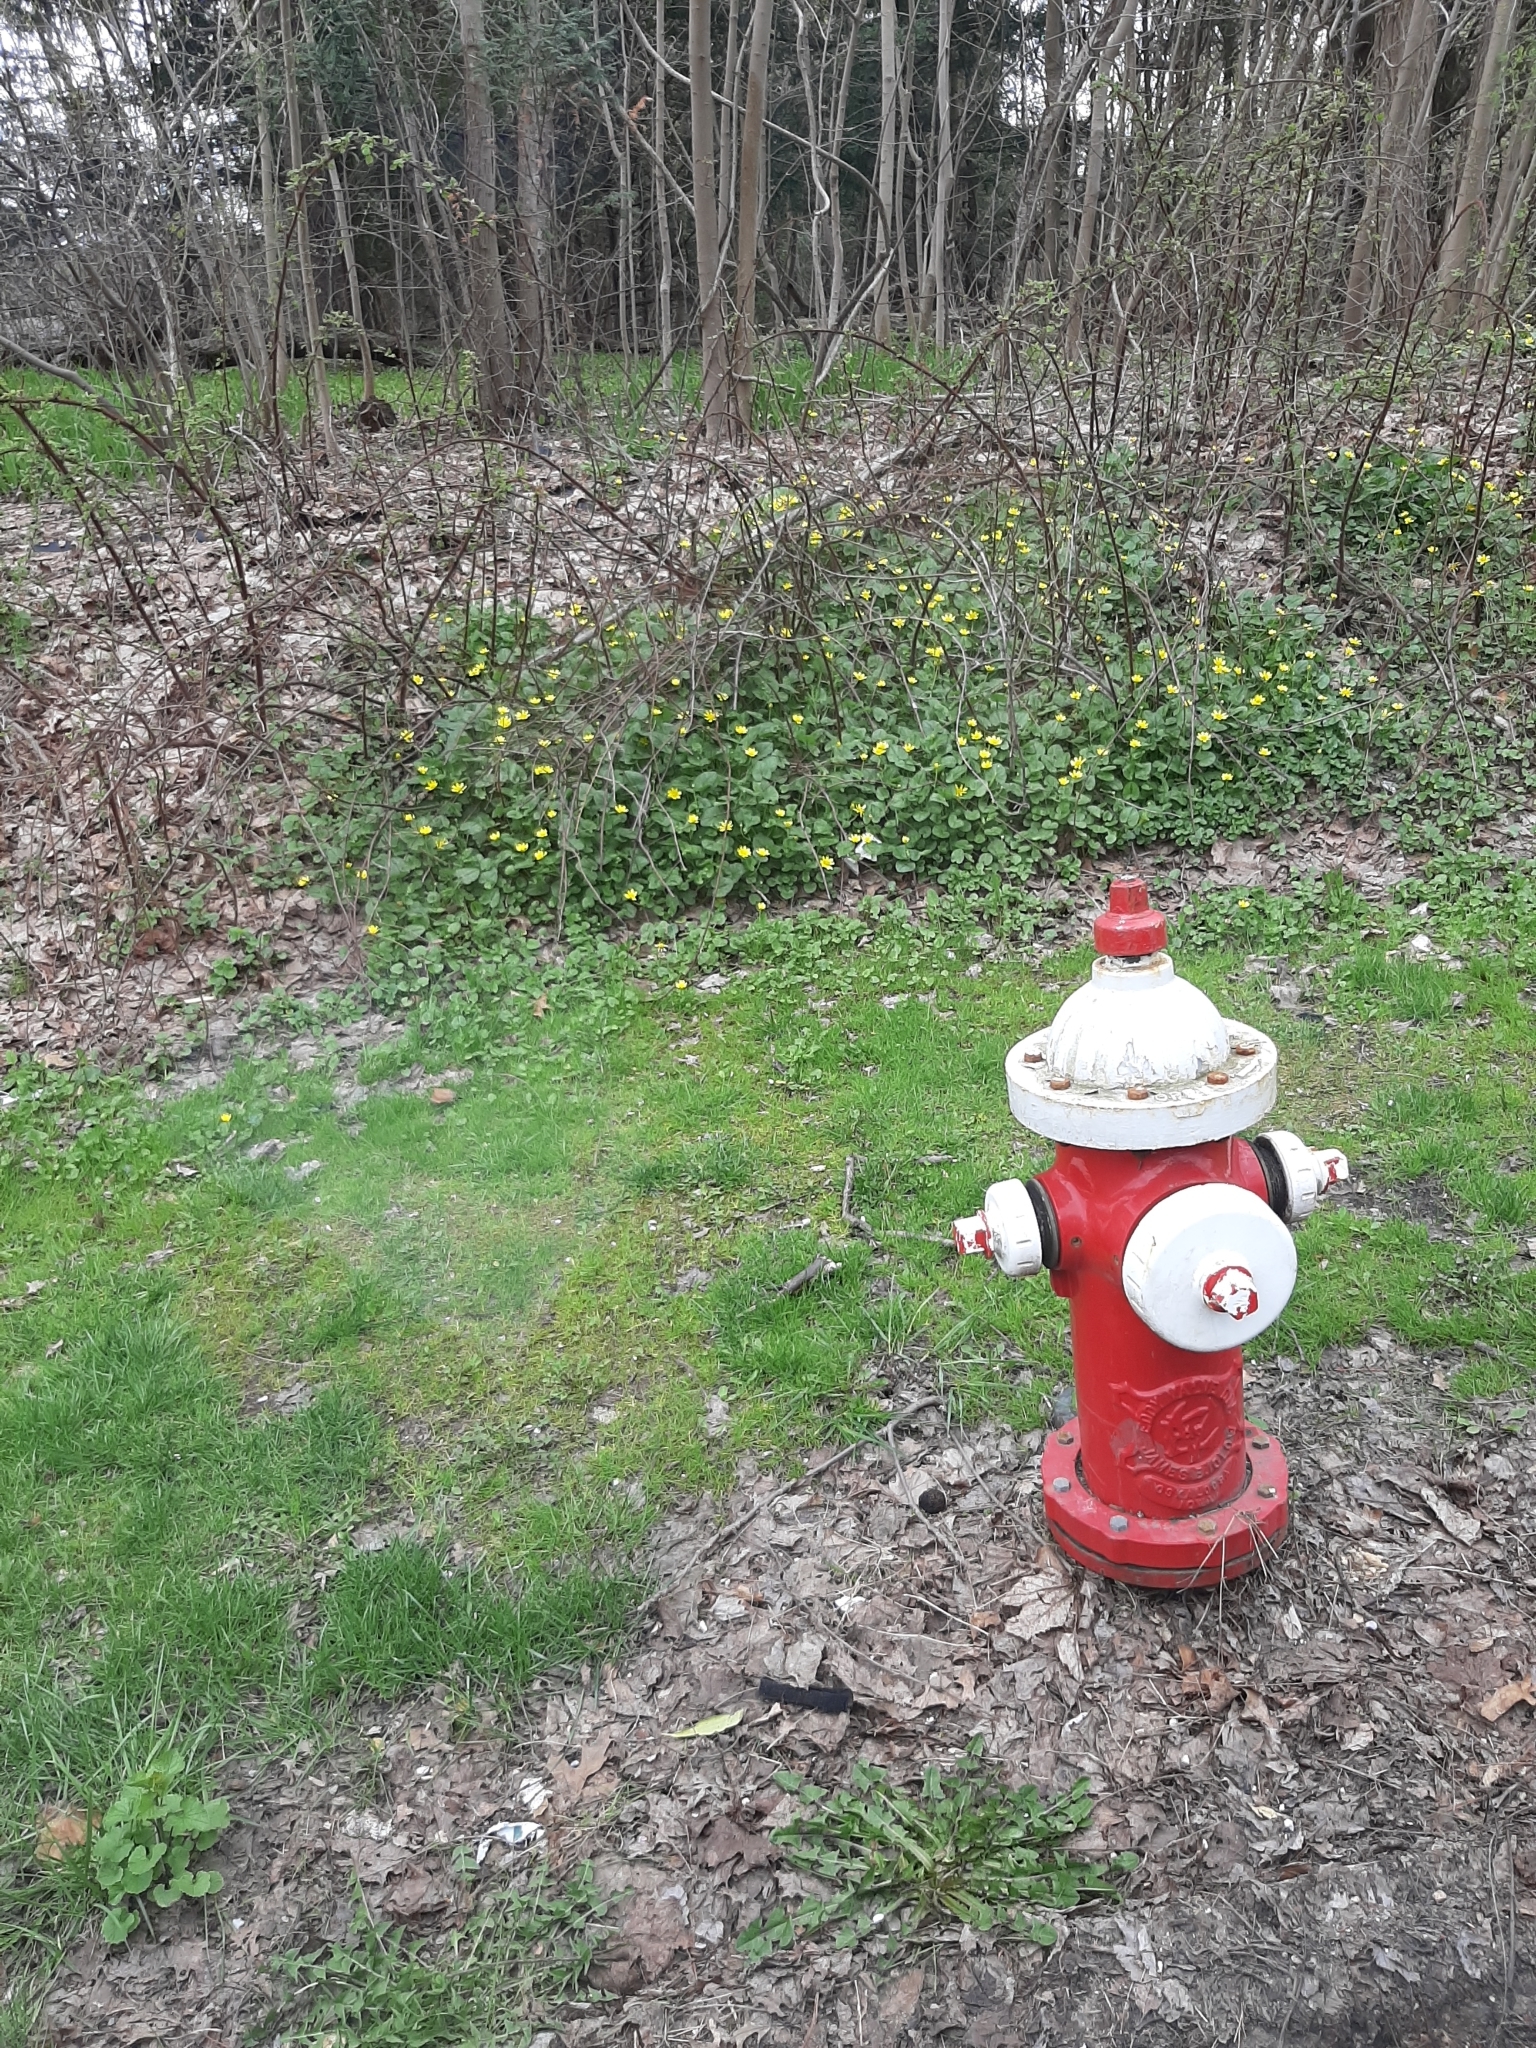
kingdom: Plantae
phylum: Tracheophyta
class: Magnoliopsida
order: Ranunculales
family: Ranunculaceae
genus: Ficaria
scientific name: Ficaria verna
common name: Lesser celandine
